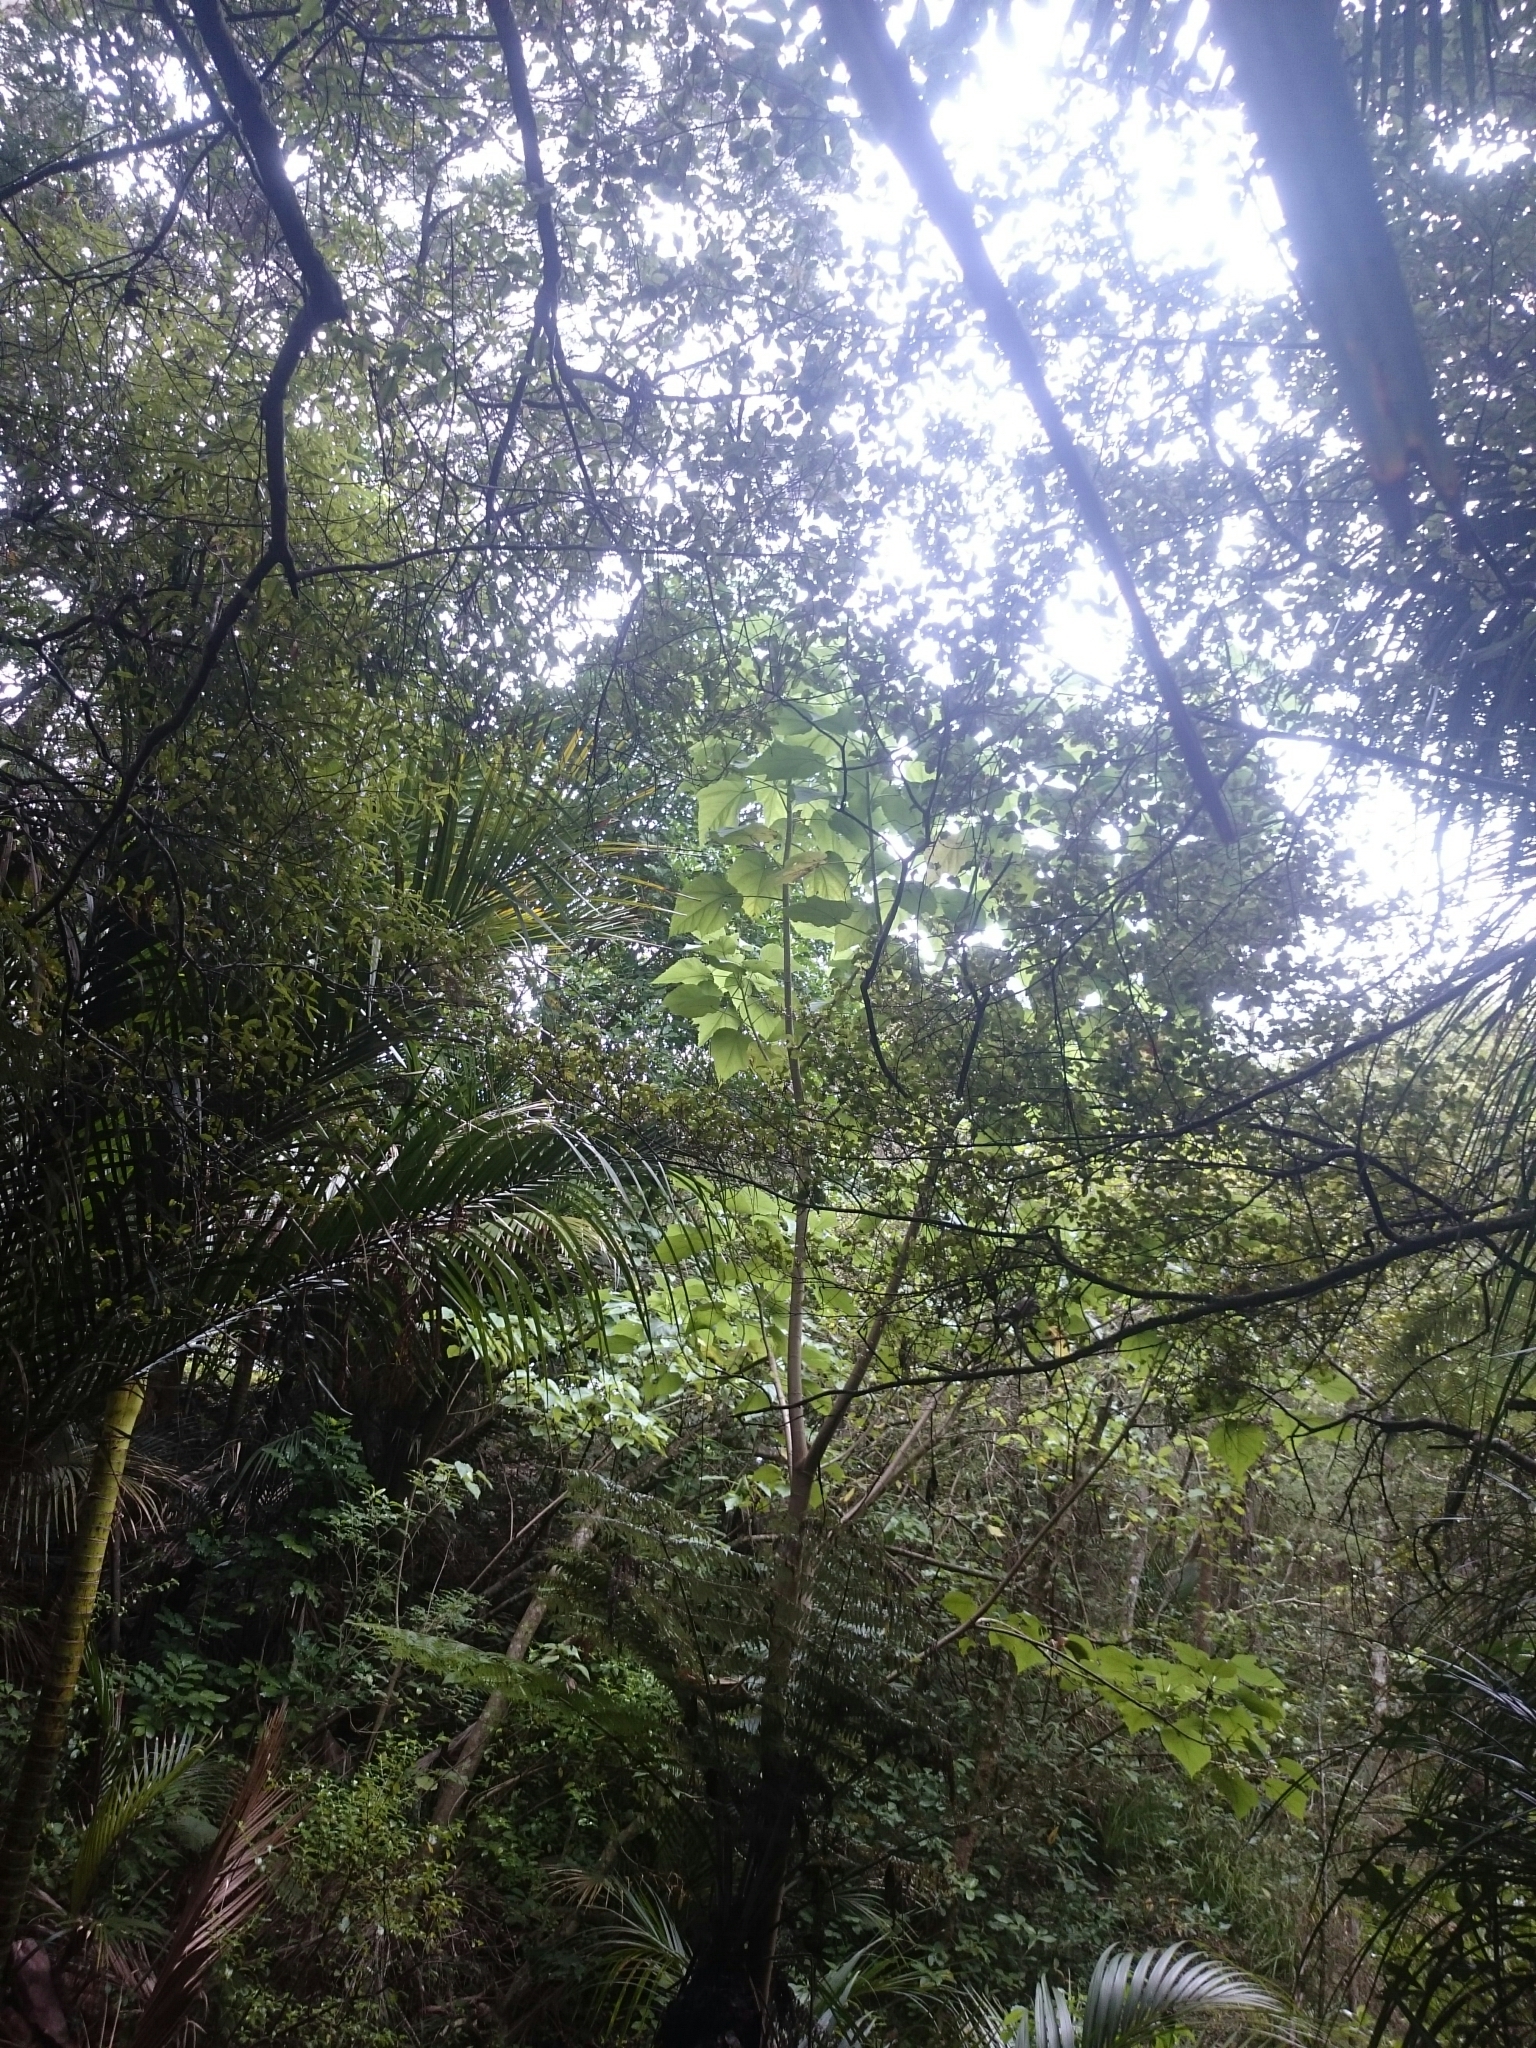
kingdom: Plantae
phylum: Tracheophyta
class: Magnoliopsida
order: Malvales
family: Malvaceae
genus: Entelea
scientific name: Entelea arborescens
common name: New zealand-mulberry
